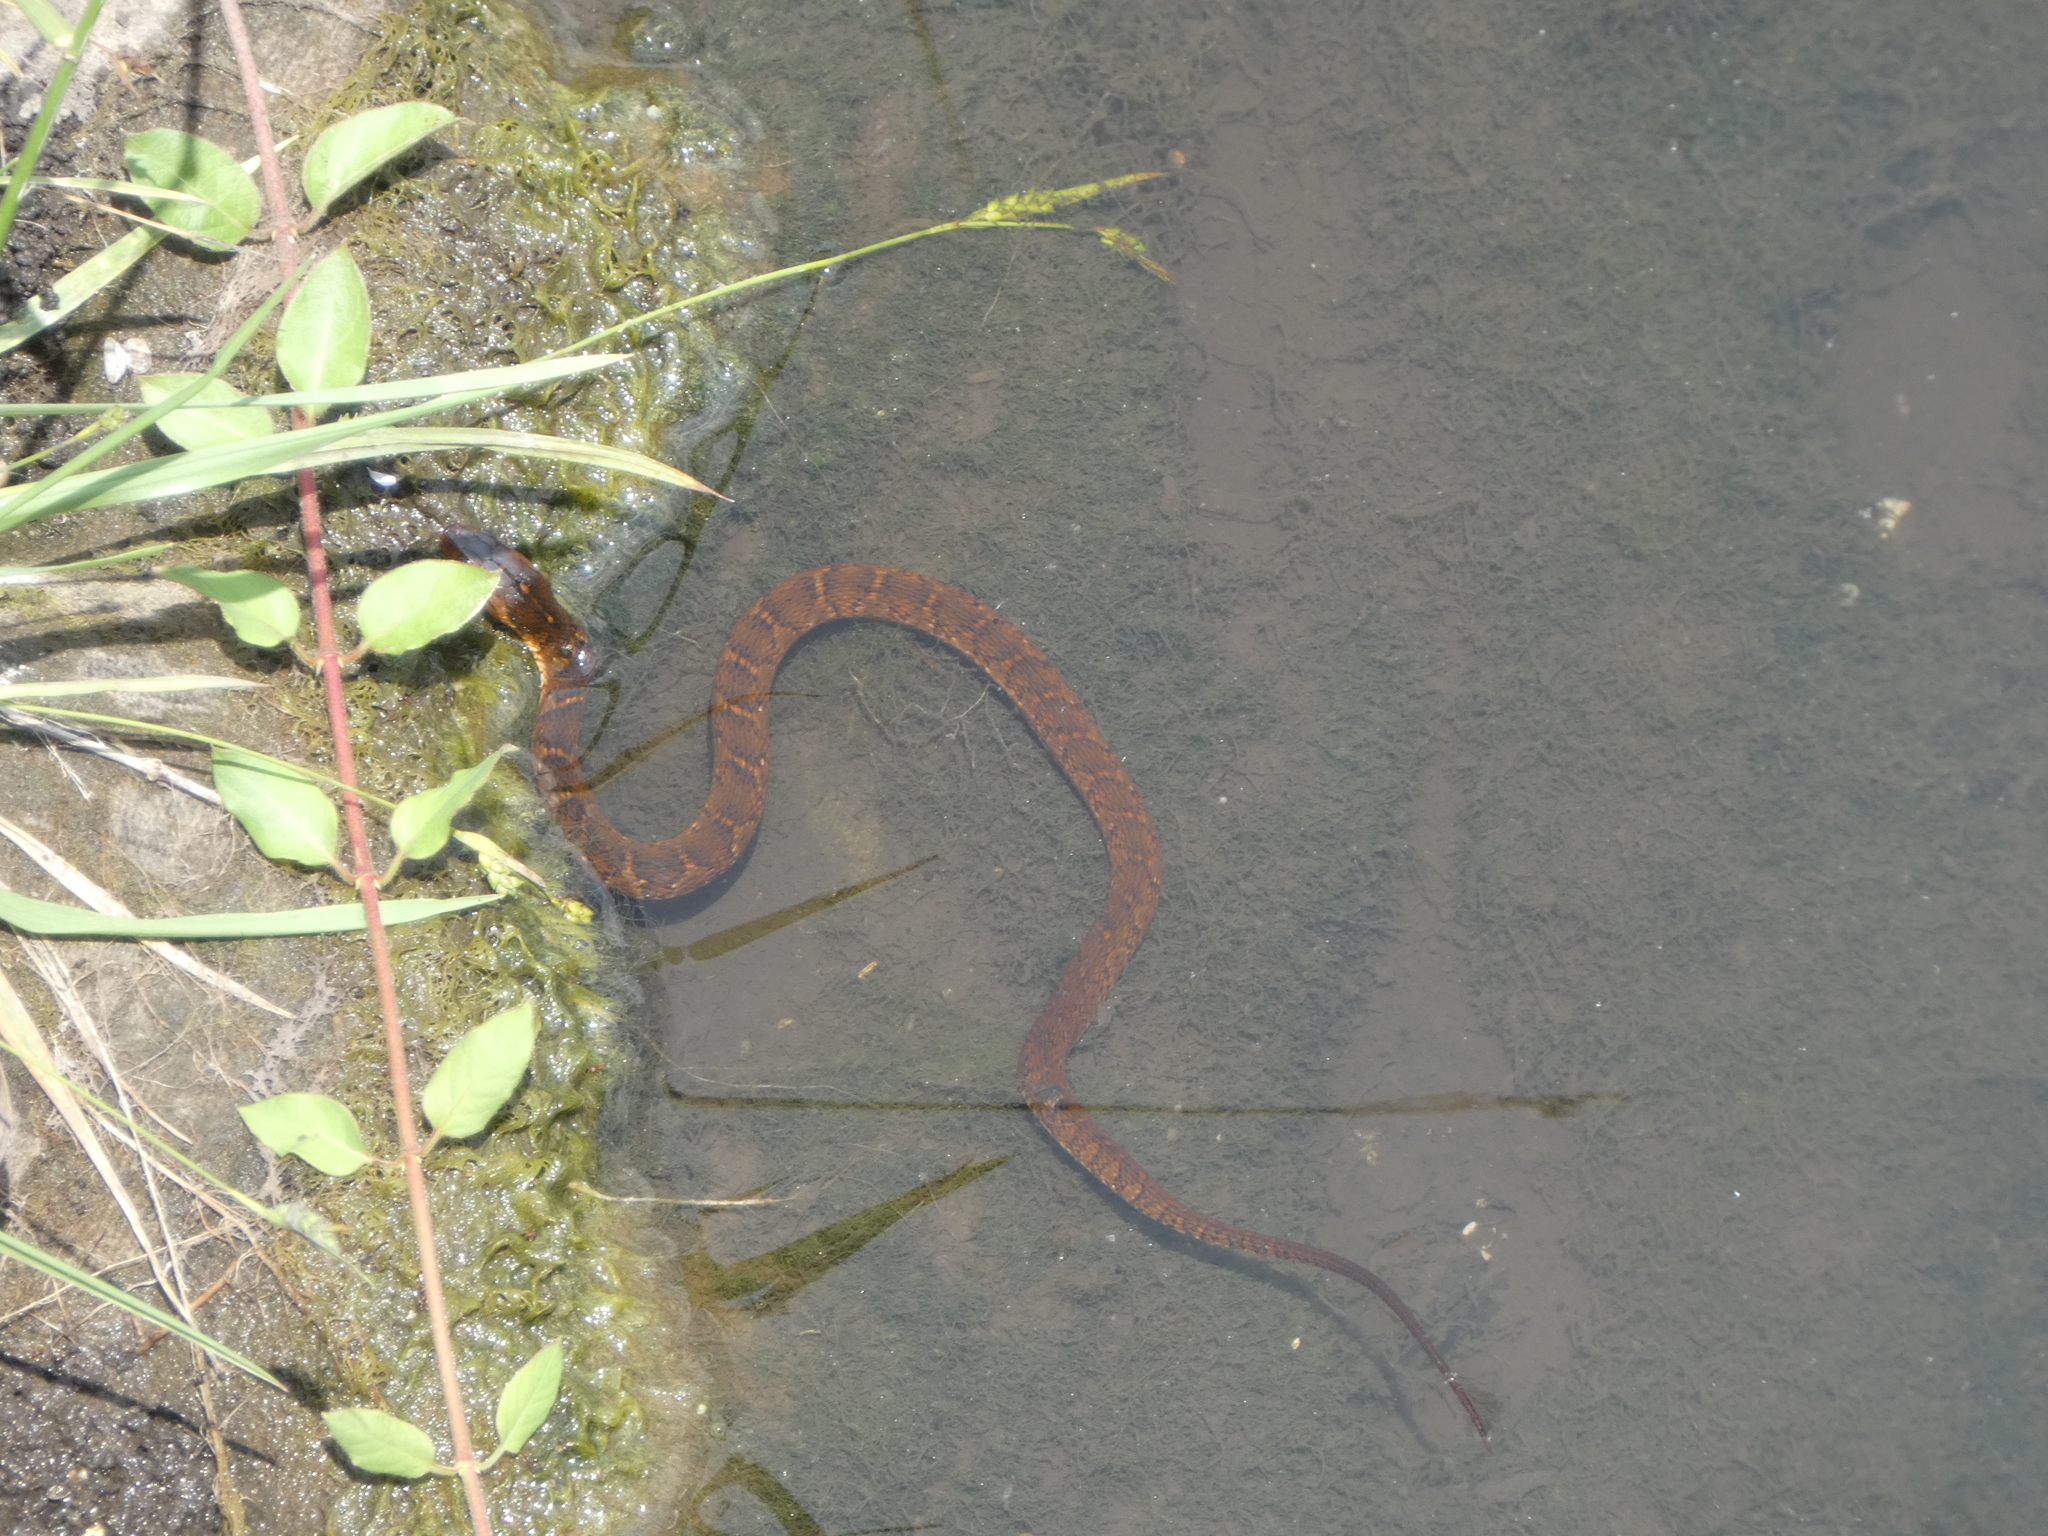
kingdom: Animalia
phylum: Chordata
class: Squamata
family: Colubridae
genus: Nerodia
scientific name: Nerodia fasciata
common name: Southern water snake
